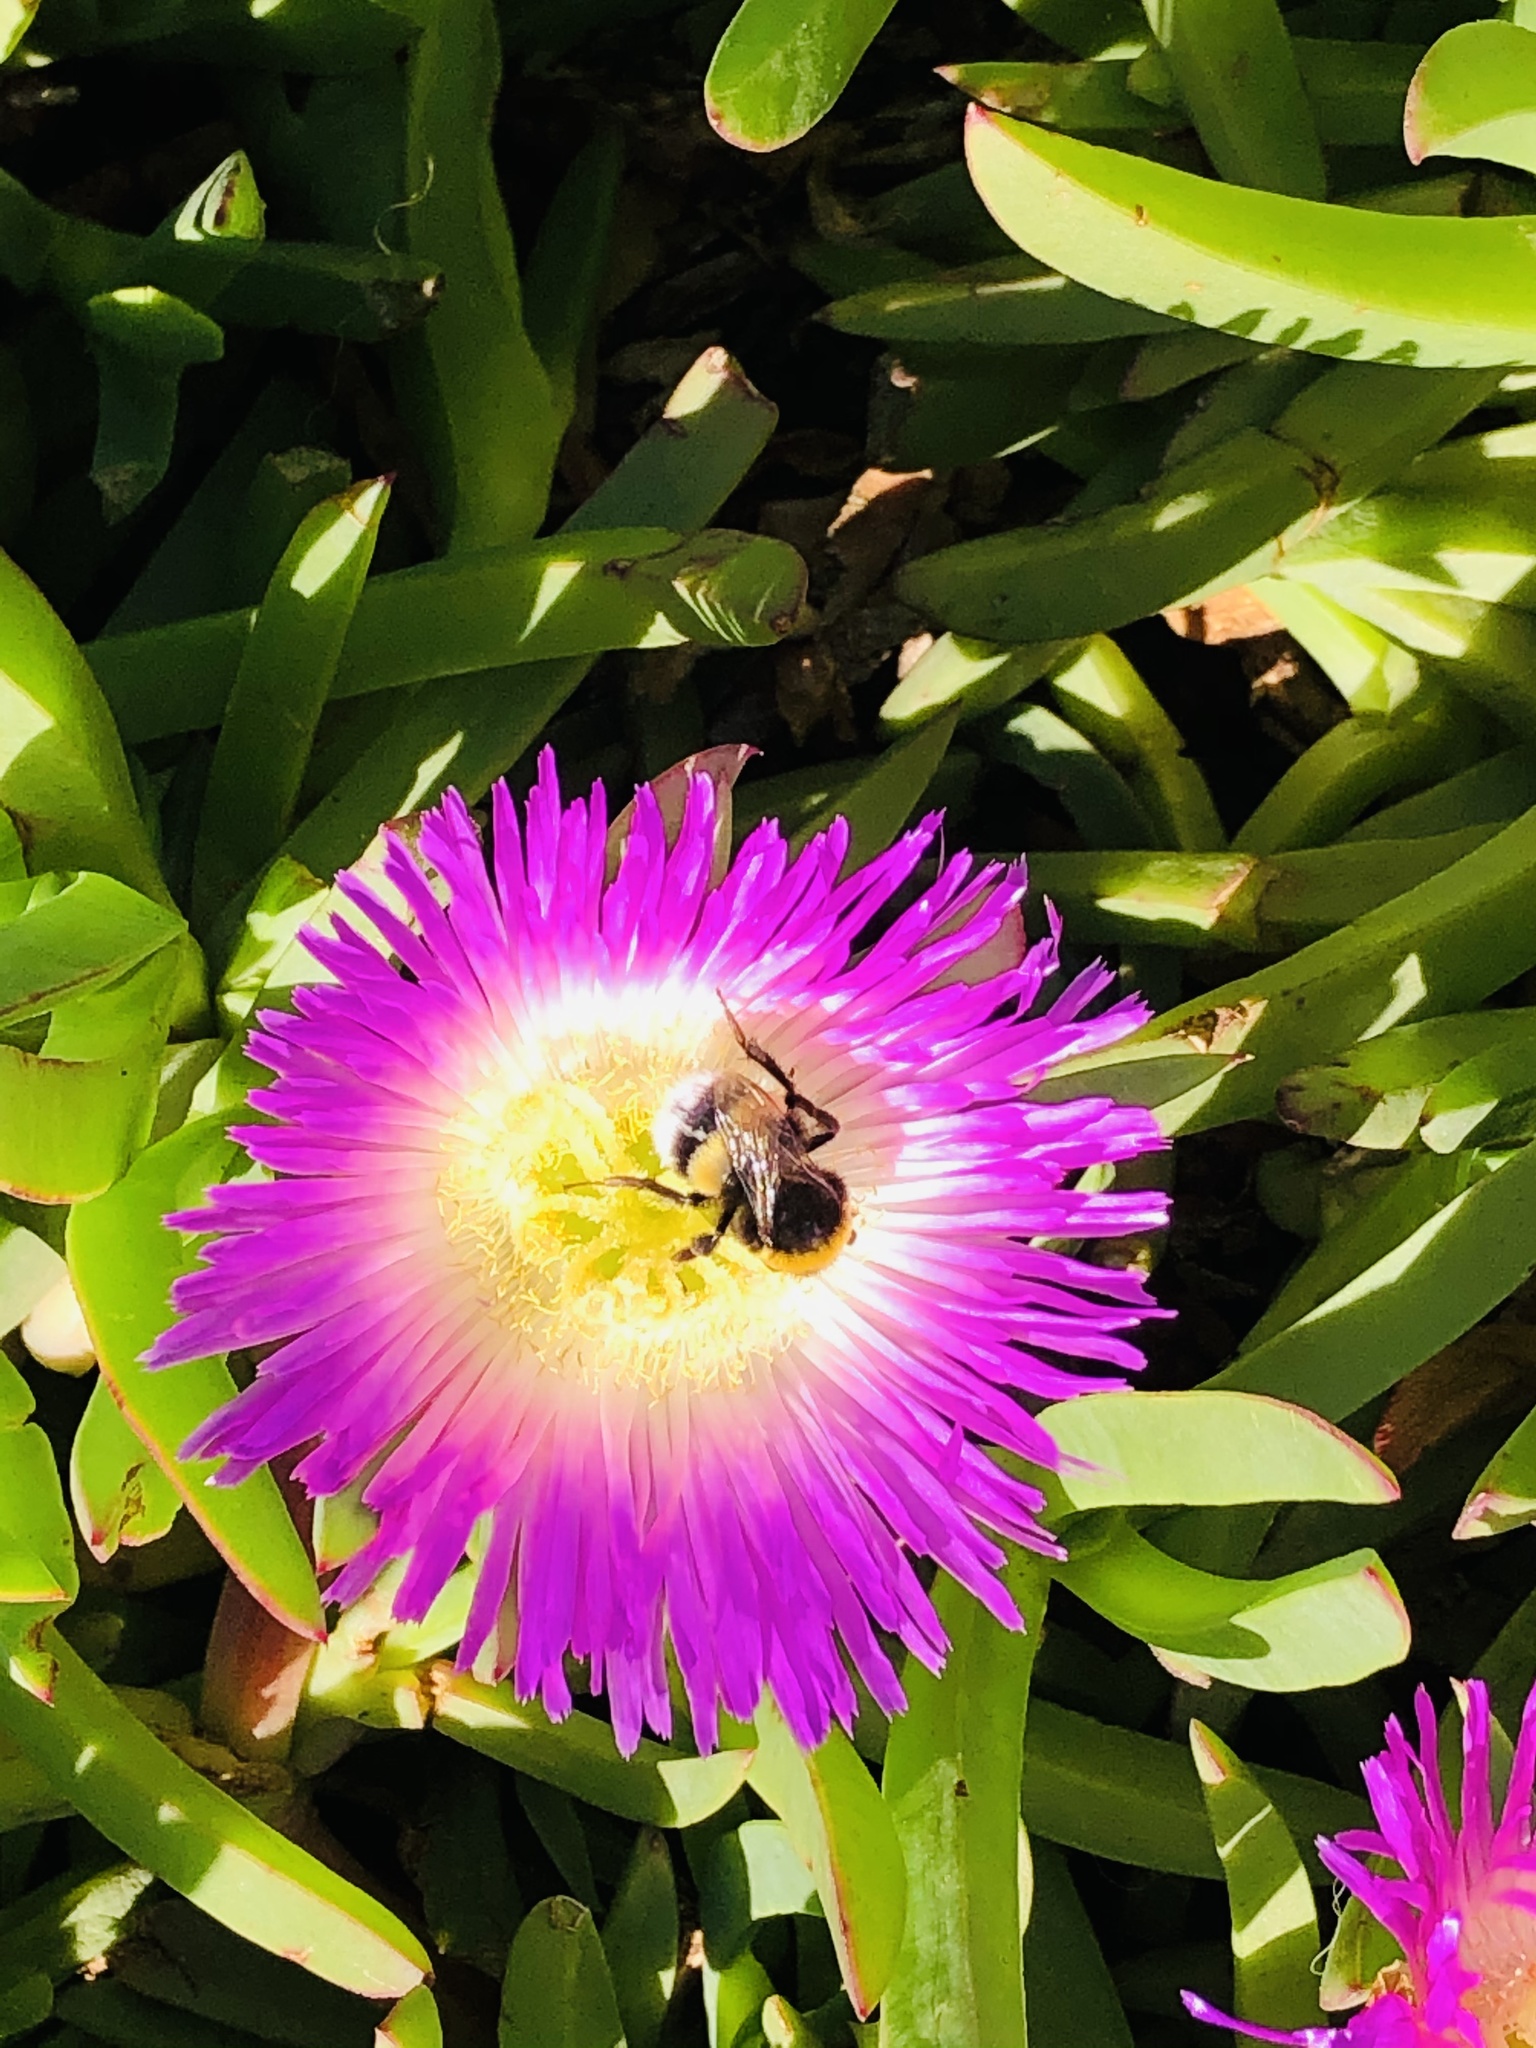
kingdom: Animalia
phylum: Arthropoda
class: Insecta
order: Hymenoptera
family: Apidae
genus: Bombus
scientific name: Bombus terrestris
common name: Buff-tailed bumblebee
